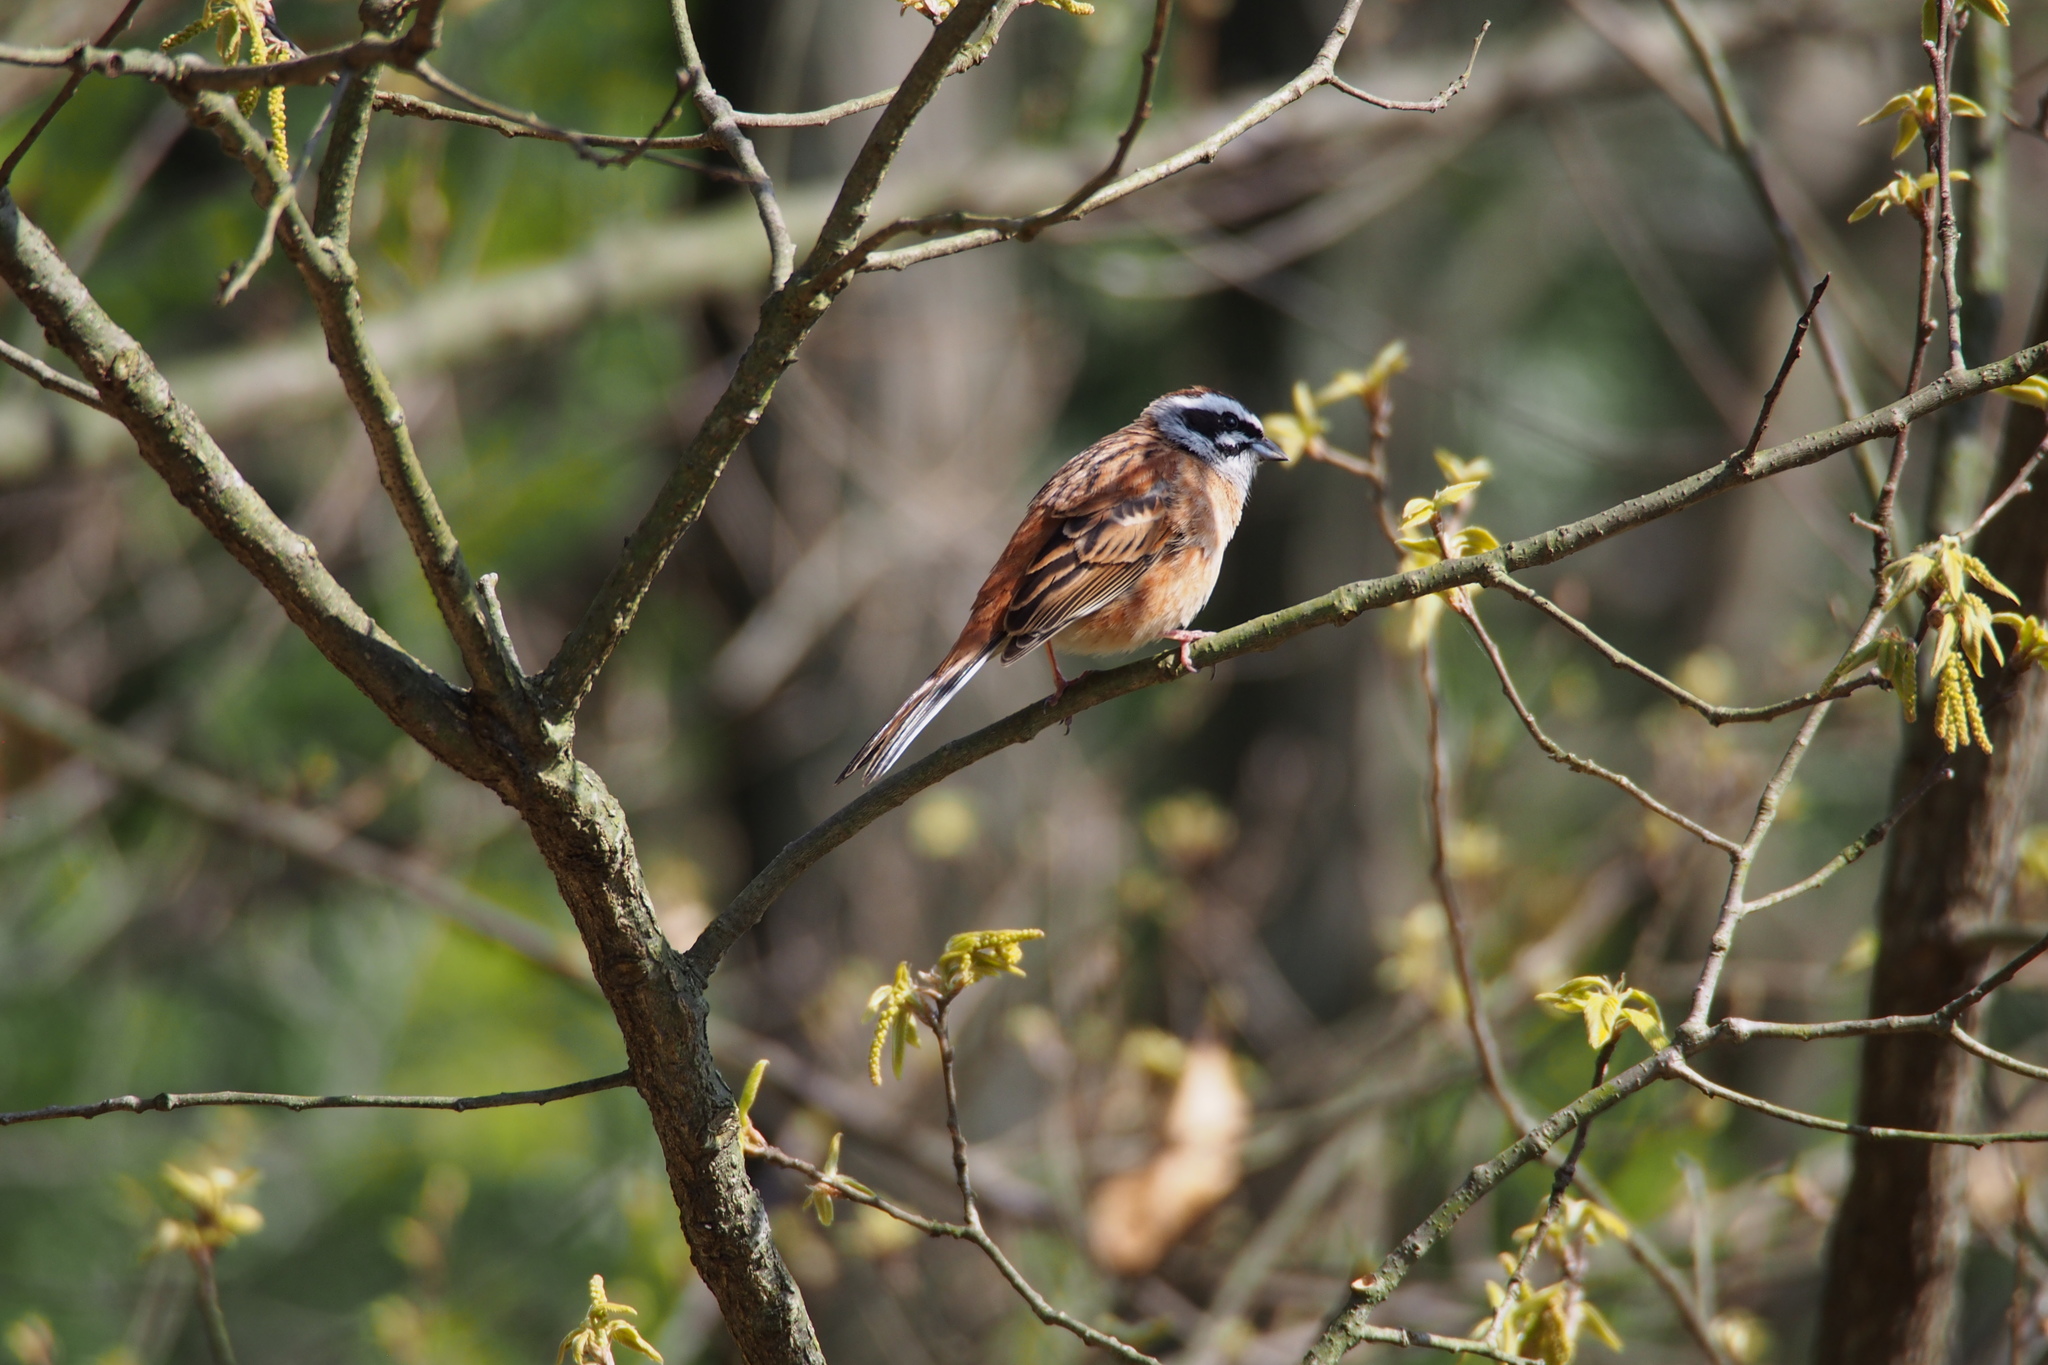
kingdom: Animalia
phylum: Chordata
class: Aves
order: Passeriformes
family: Emberizidae
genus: Emberiza
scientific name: Emberiza cioides
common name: Meadow bunting
